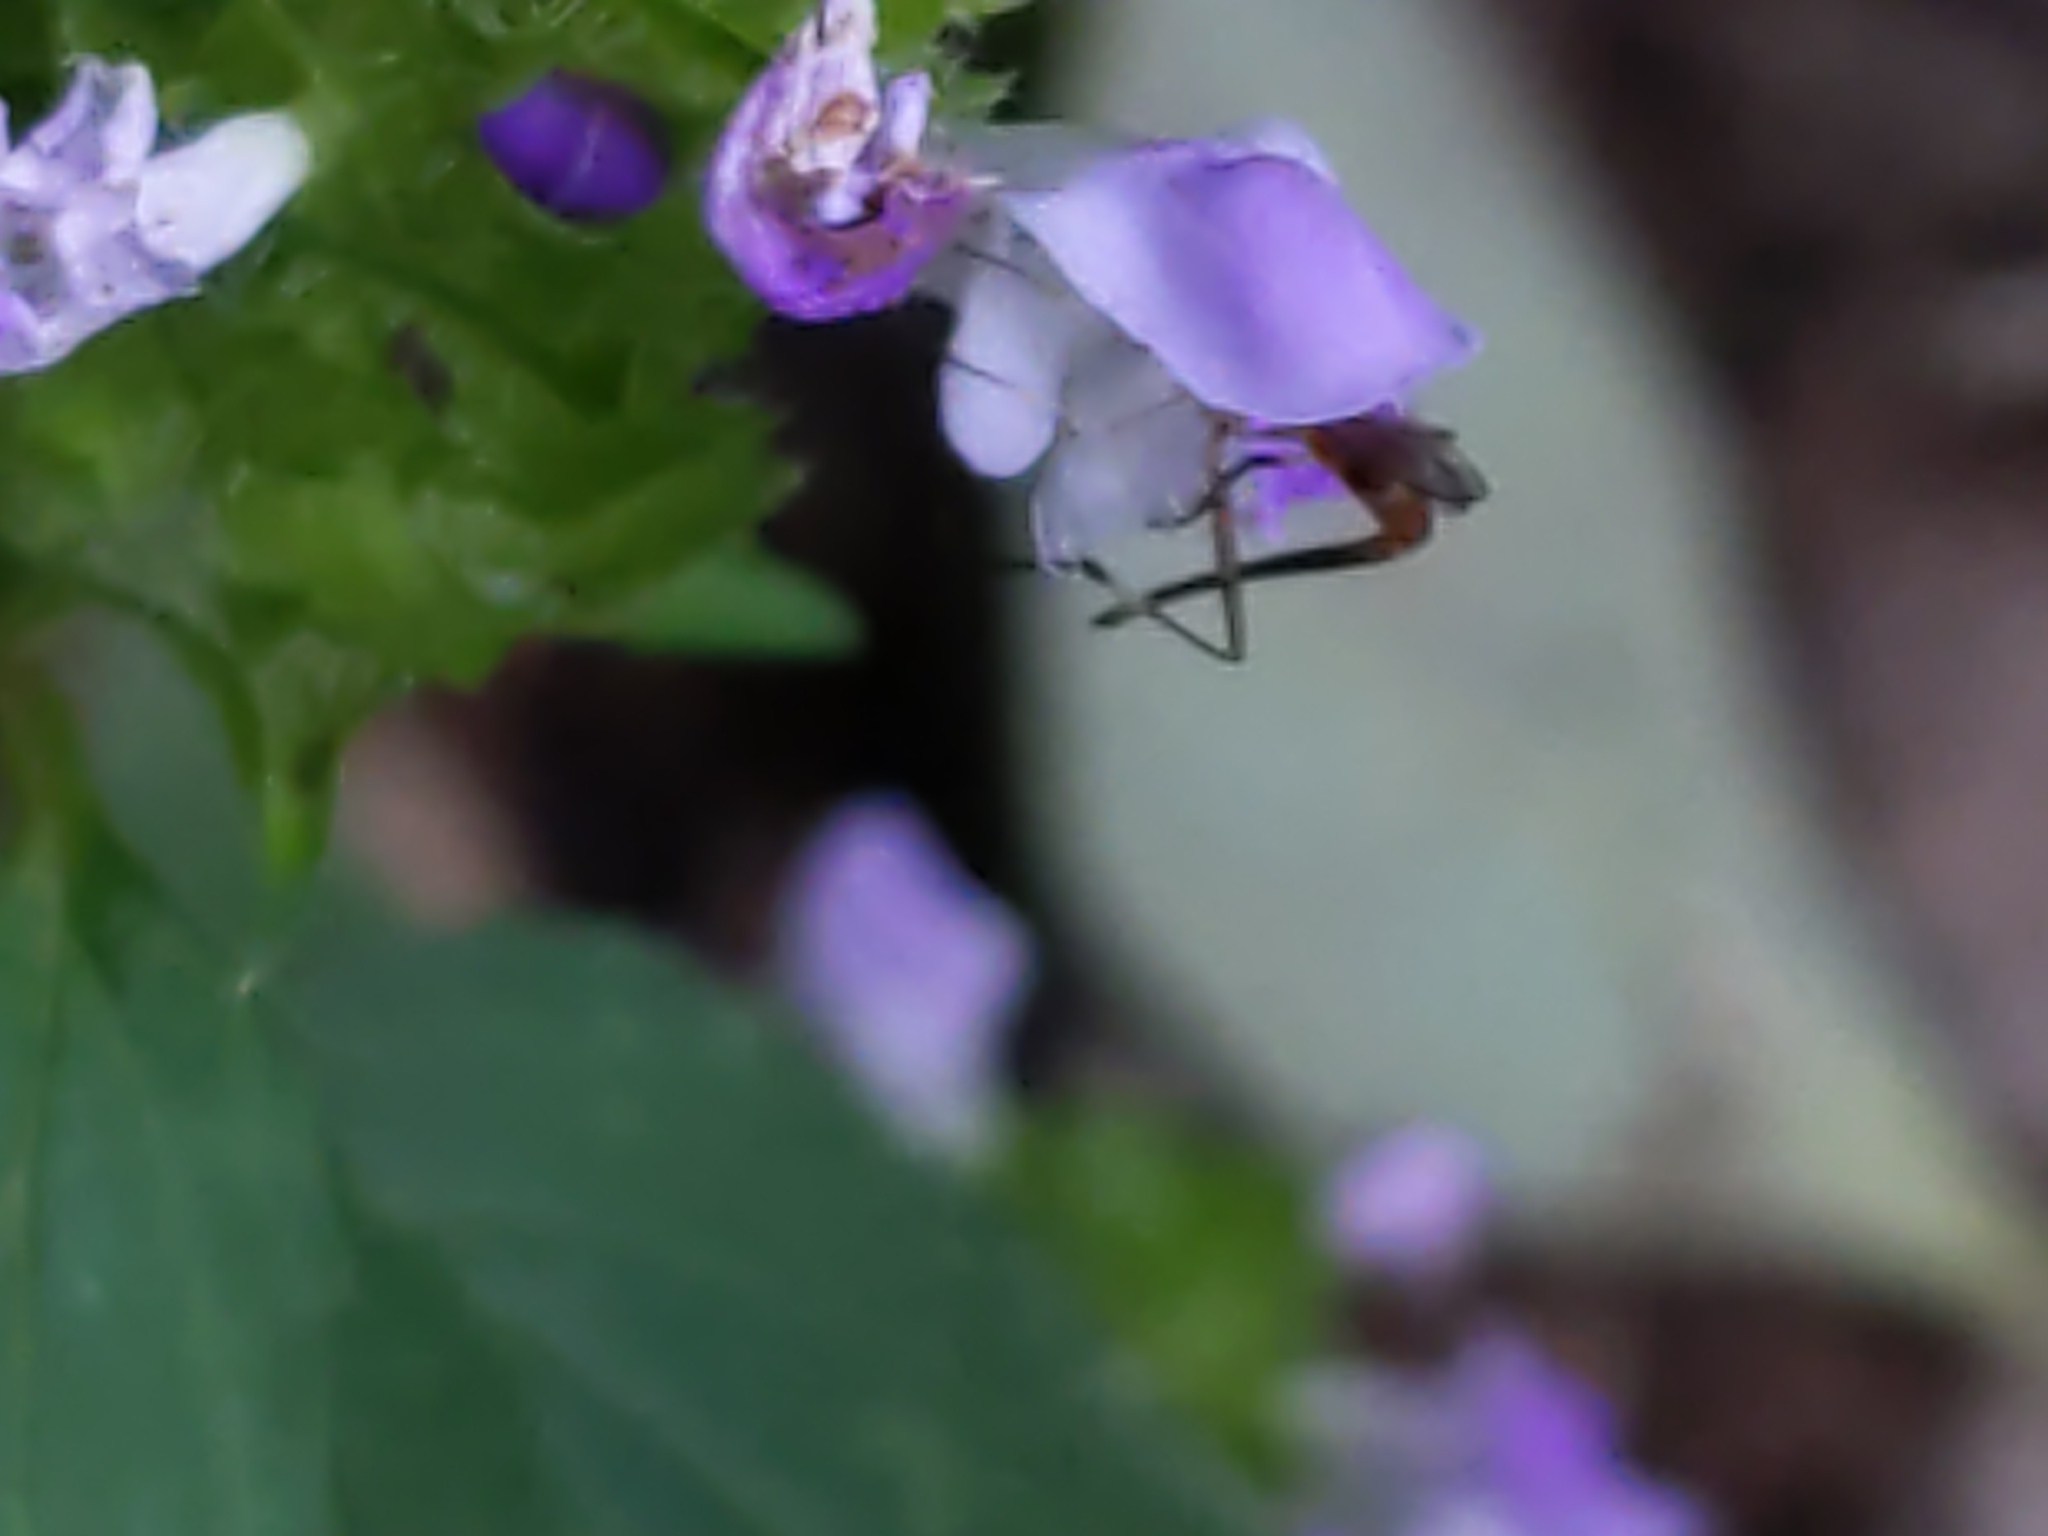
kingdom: Animalia
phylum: Arthropoda
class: Insecta
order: Diptera
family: Conopidae
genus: Stylogaster
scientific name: Stylogaster neglecta
